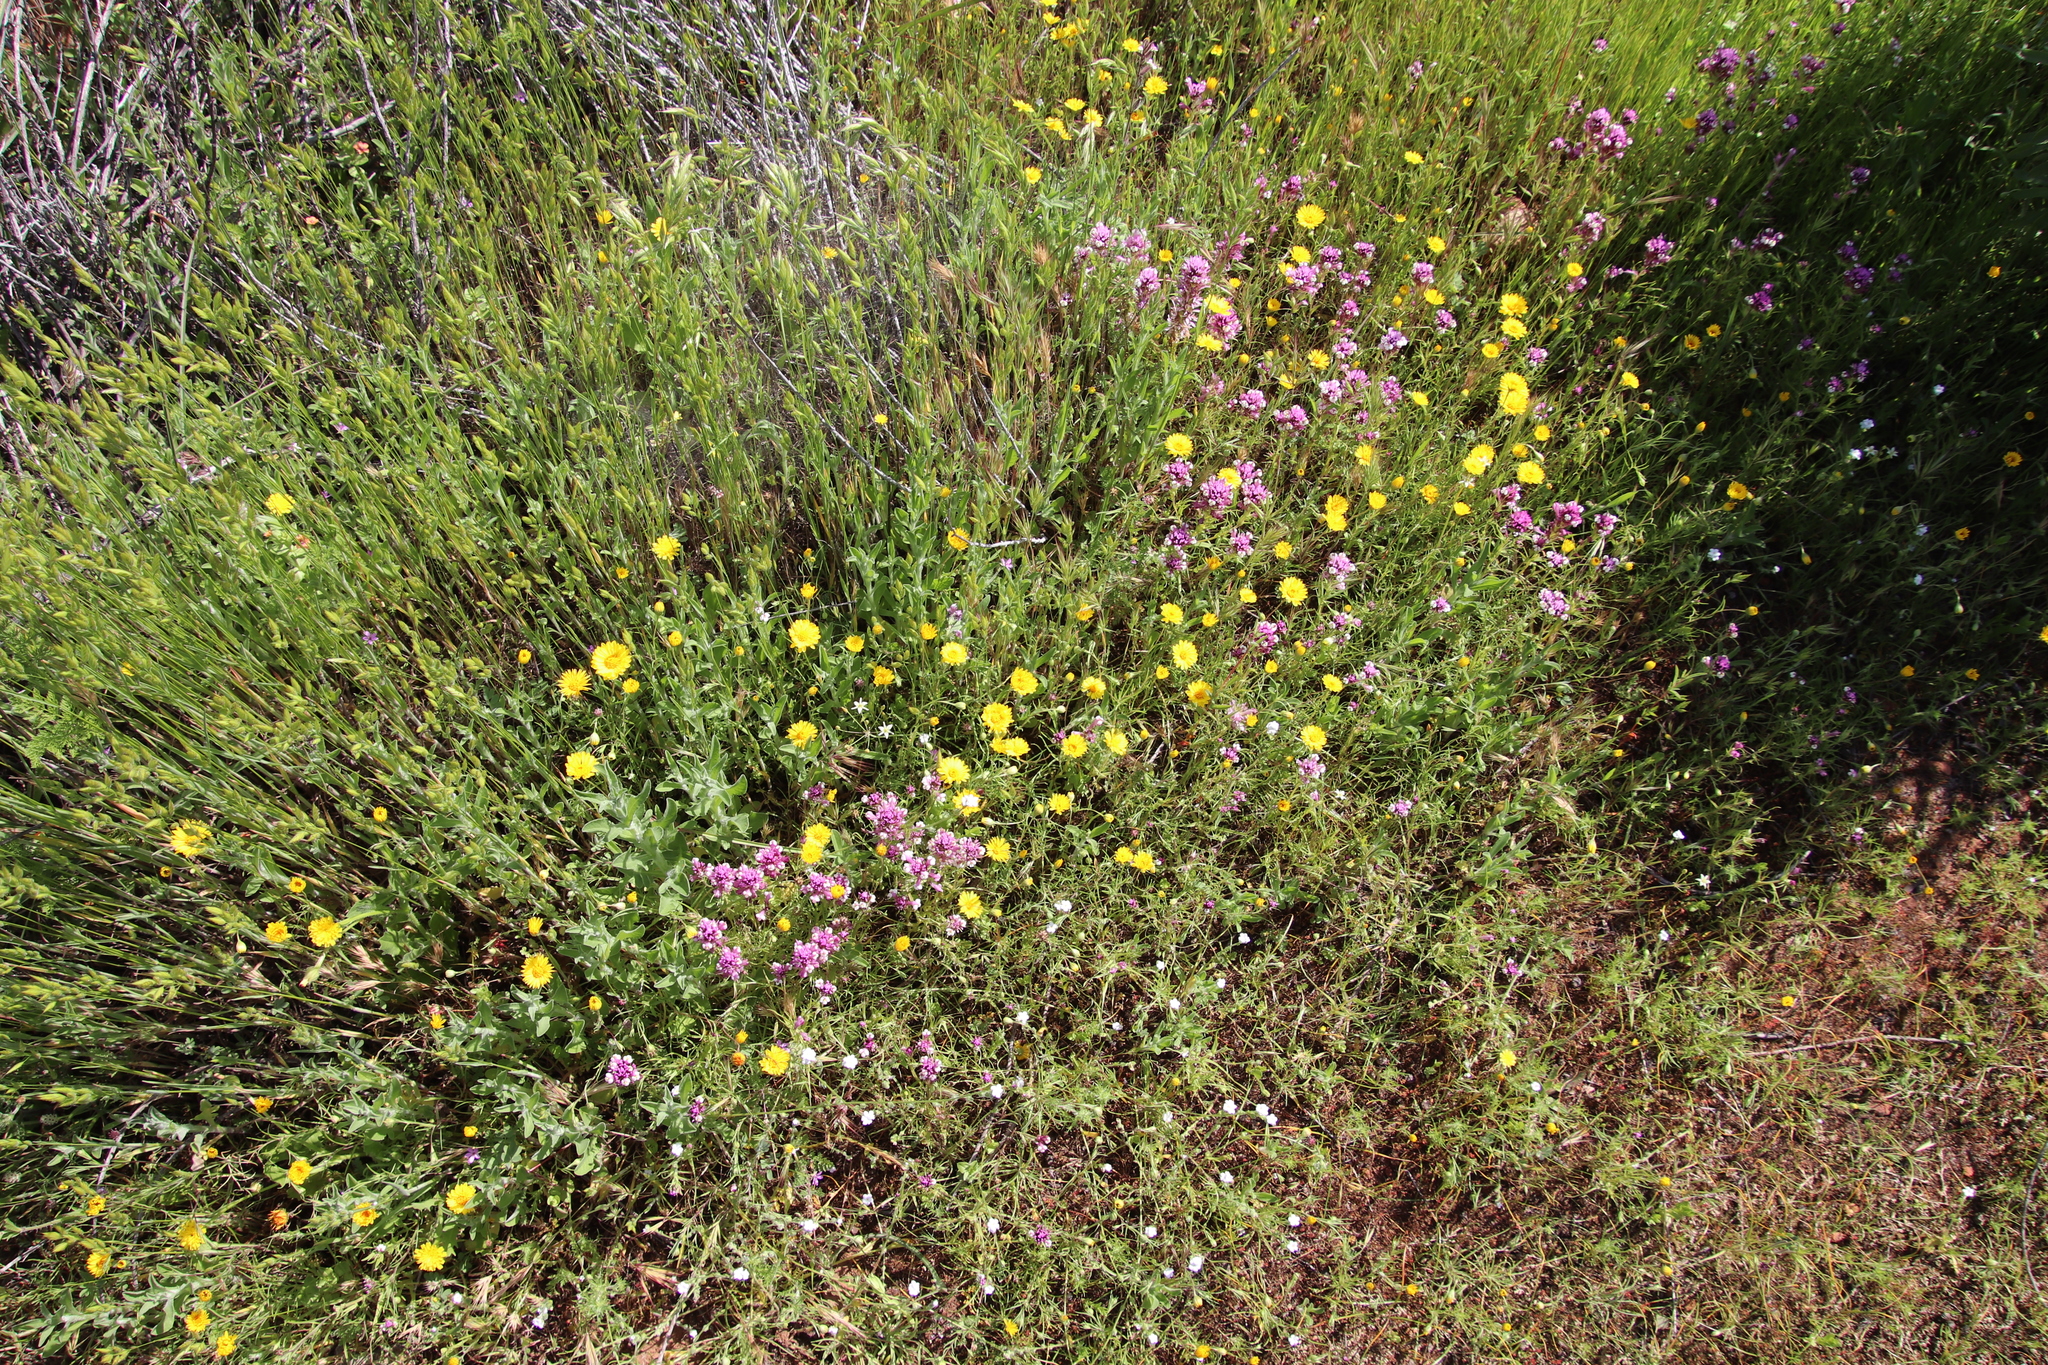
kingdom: Plantae
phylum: Tracheophyta
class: Magnoliopsida
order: Asterales
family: Asteraceae
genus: Pentachaeta
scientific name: Pentachaeta aurea
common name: Golden-ray pentachaeta
